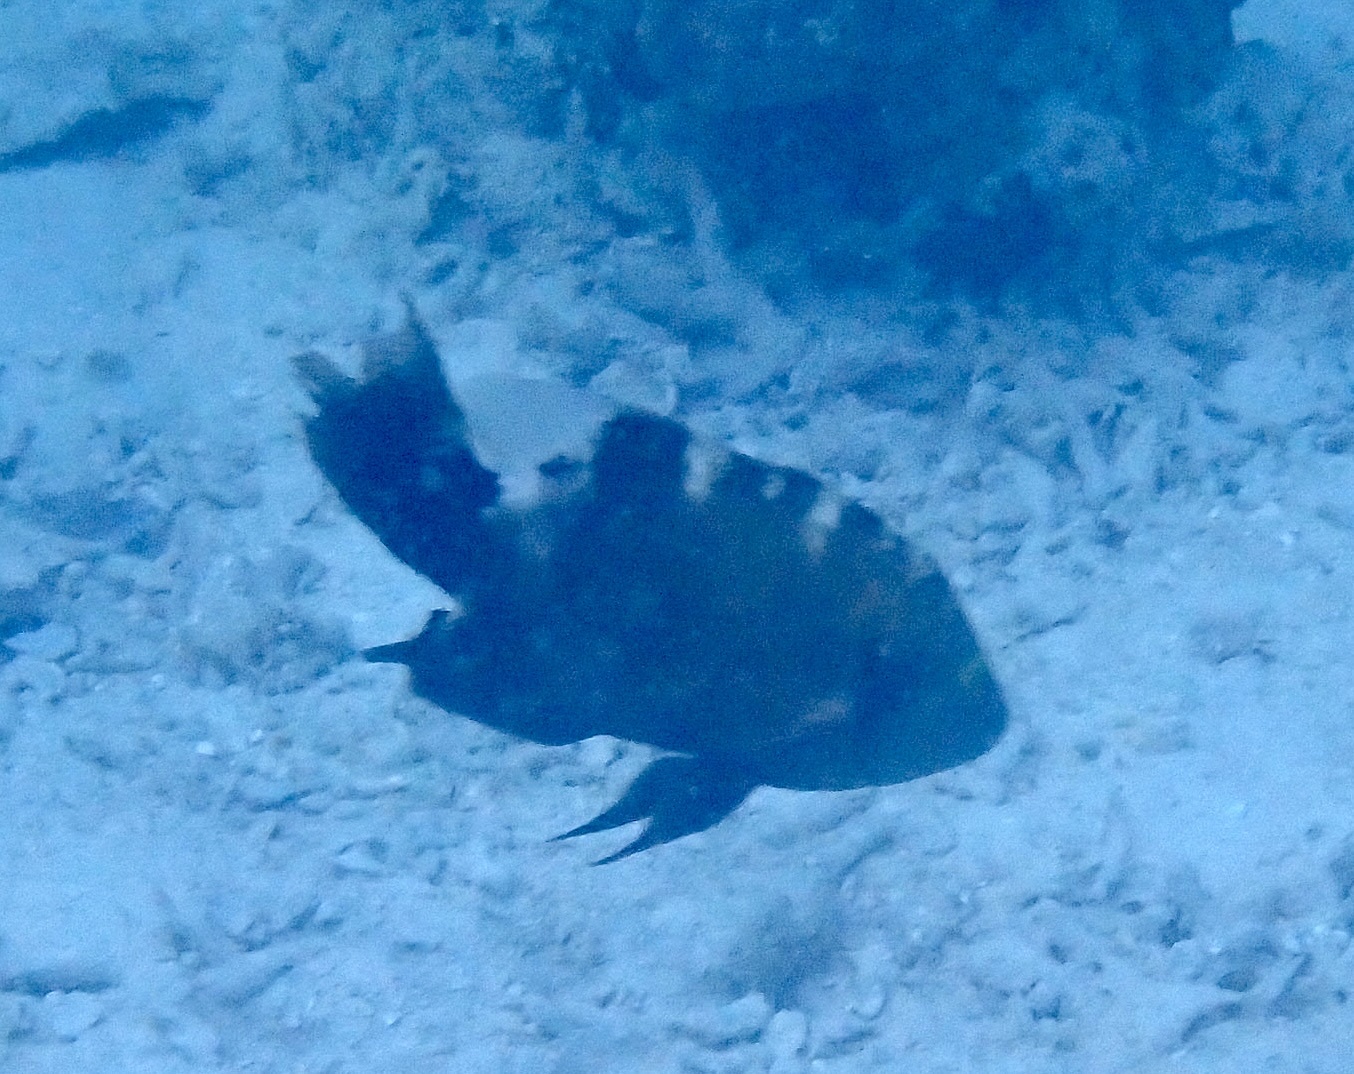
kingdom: Animalia
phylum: Chordata
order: Perciformes
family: Labridae
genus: Cheilinus
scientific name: Cheilinus trilobatus
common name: Tripletail maori wrasse
